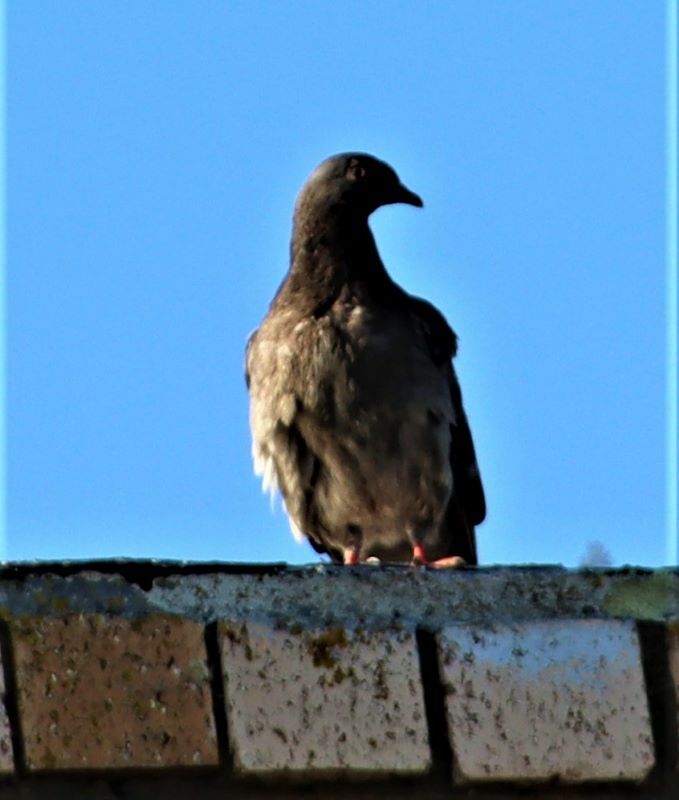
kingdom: Animalia
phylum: Chordata
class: Aves
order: Columbiformes
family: Columbidae
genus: Columba
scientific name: Columba livia
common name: Rock pigeon
